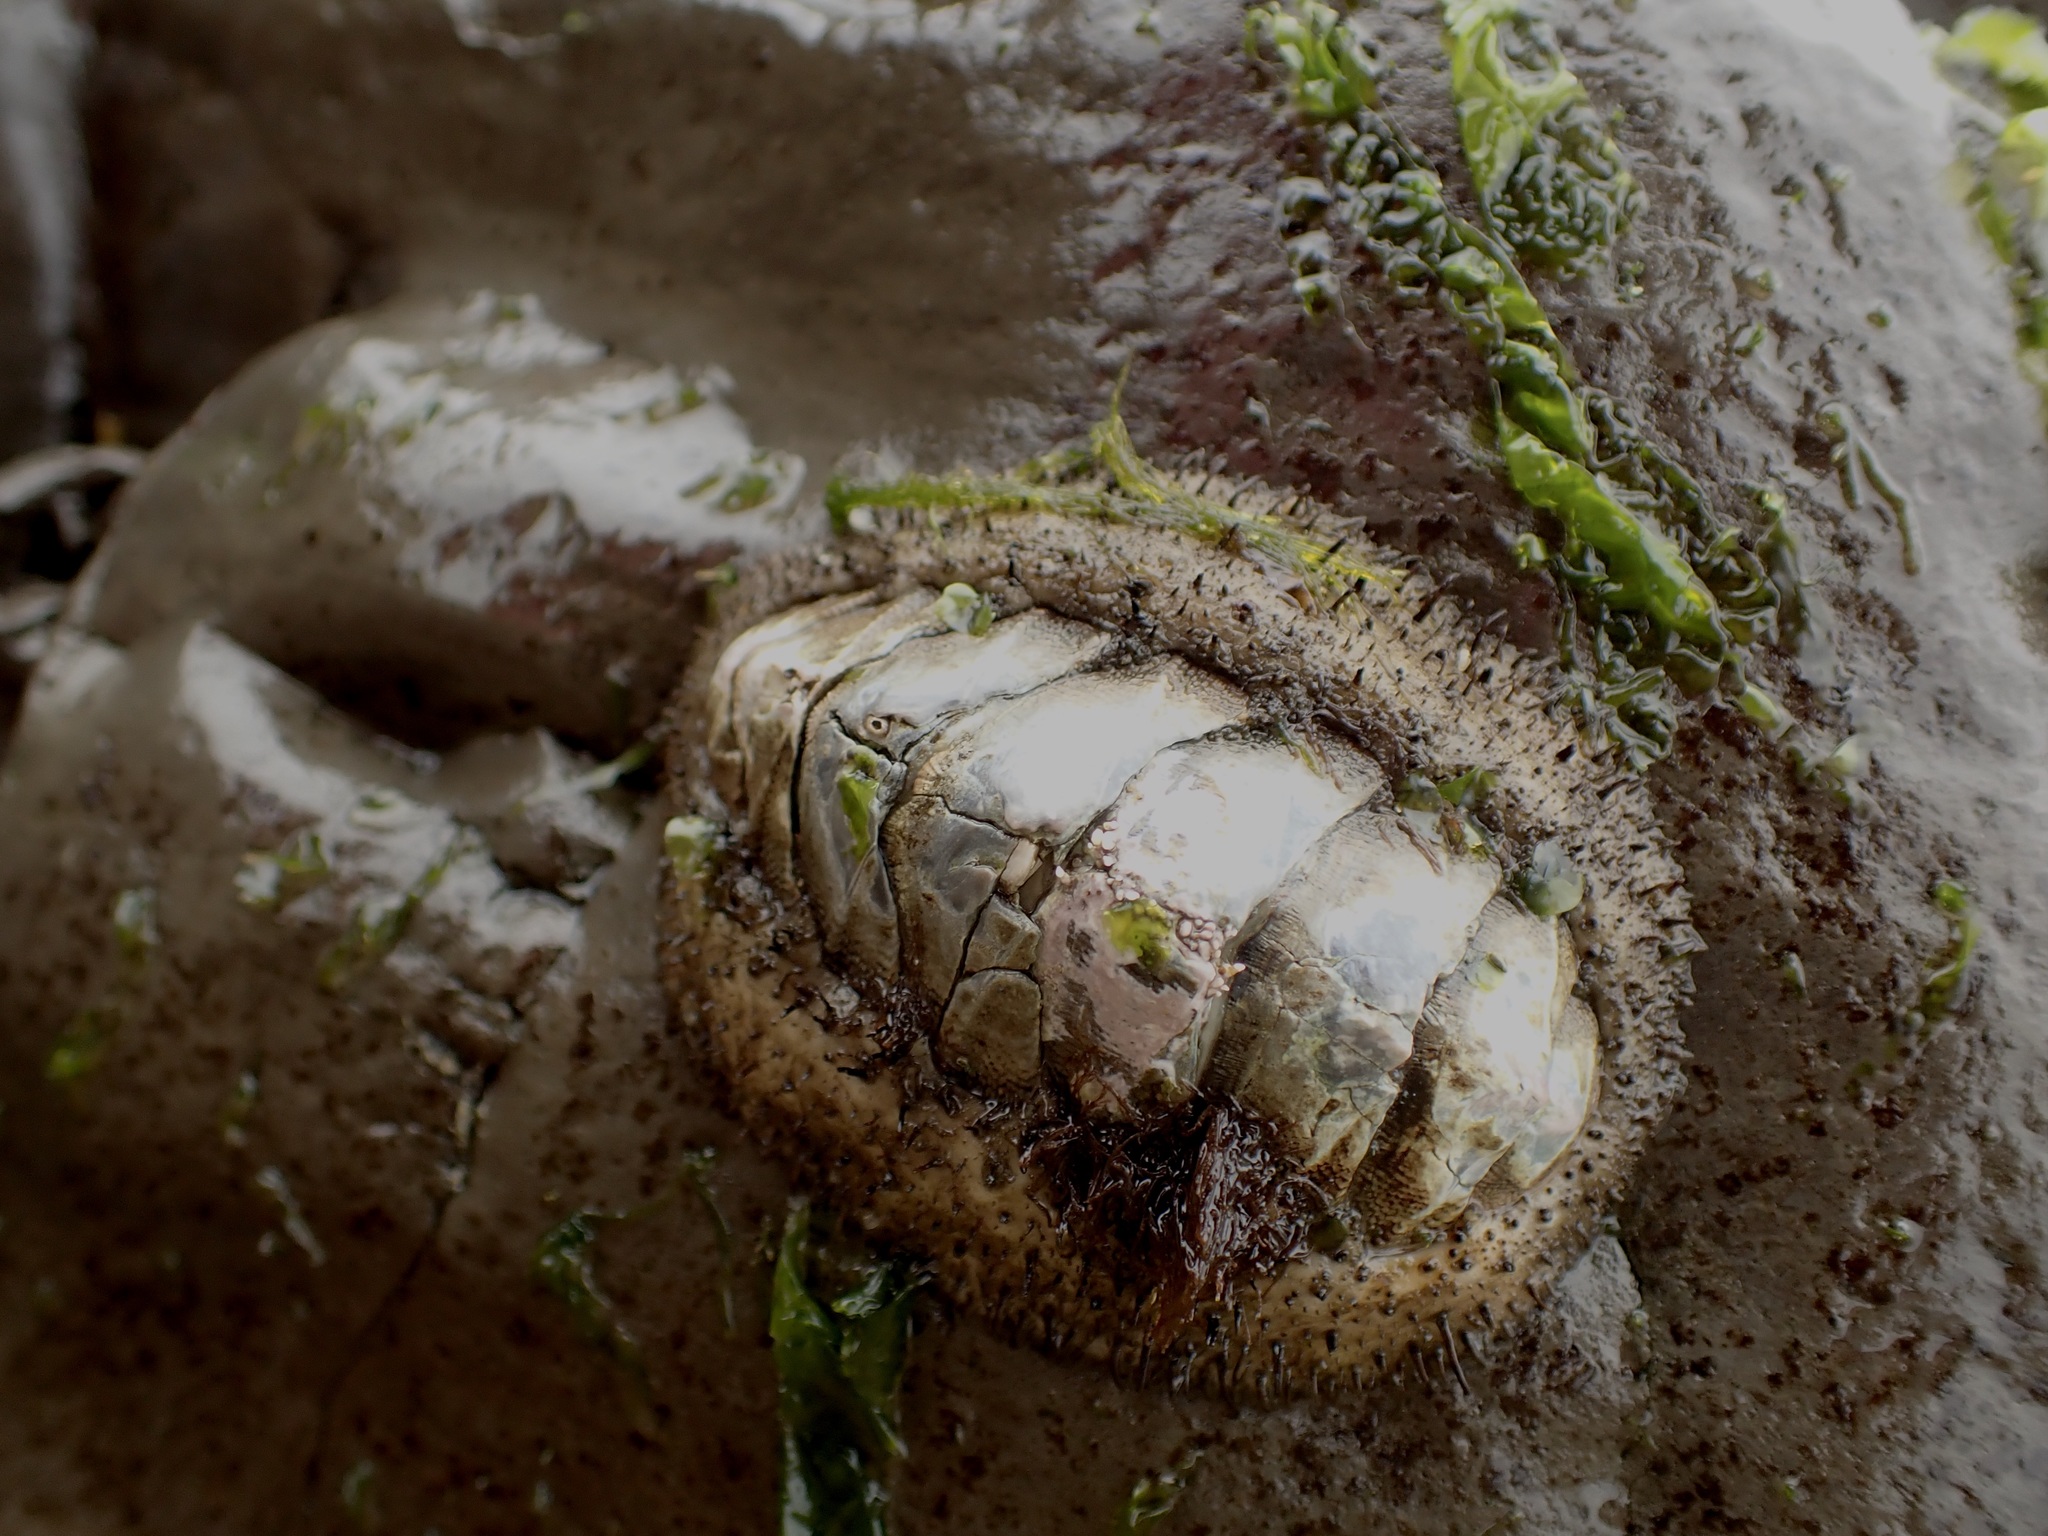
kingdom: Animalia
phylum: Mollusca
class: Polyplacophora
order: Chitonida
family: Mopaliidae
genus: Mopalia
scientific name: Mopalia muscosa
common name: Mossy chiton
